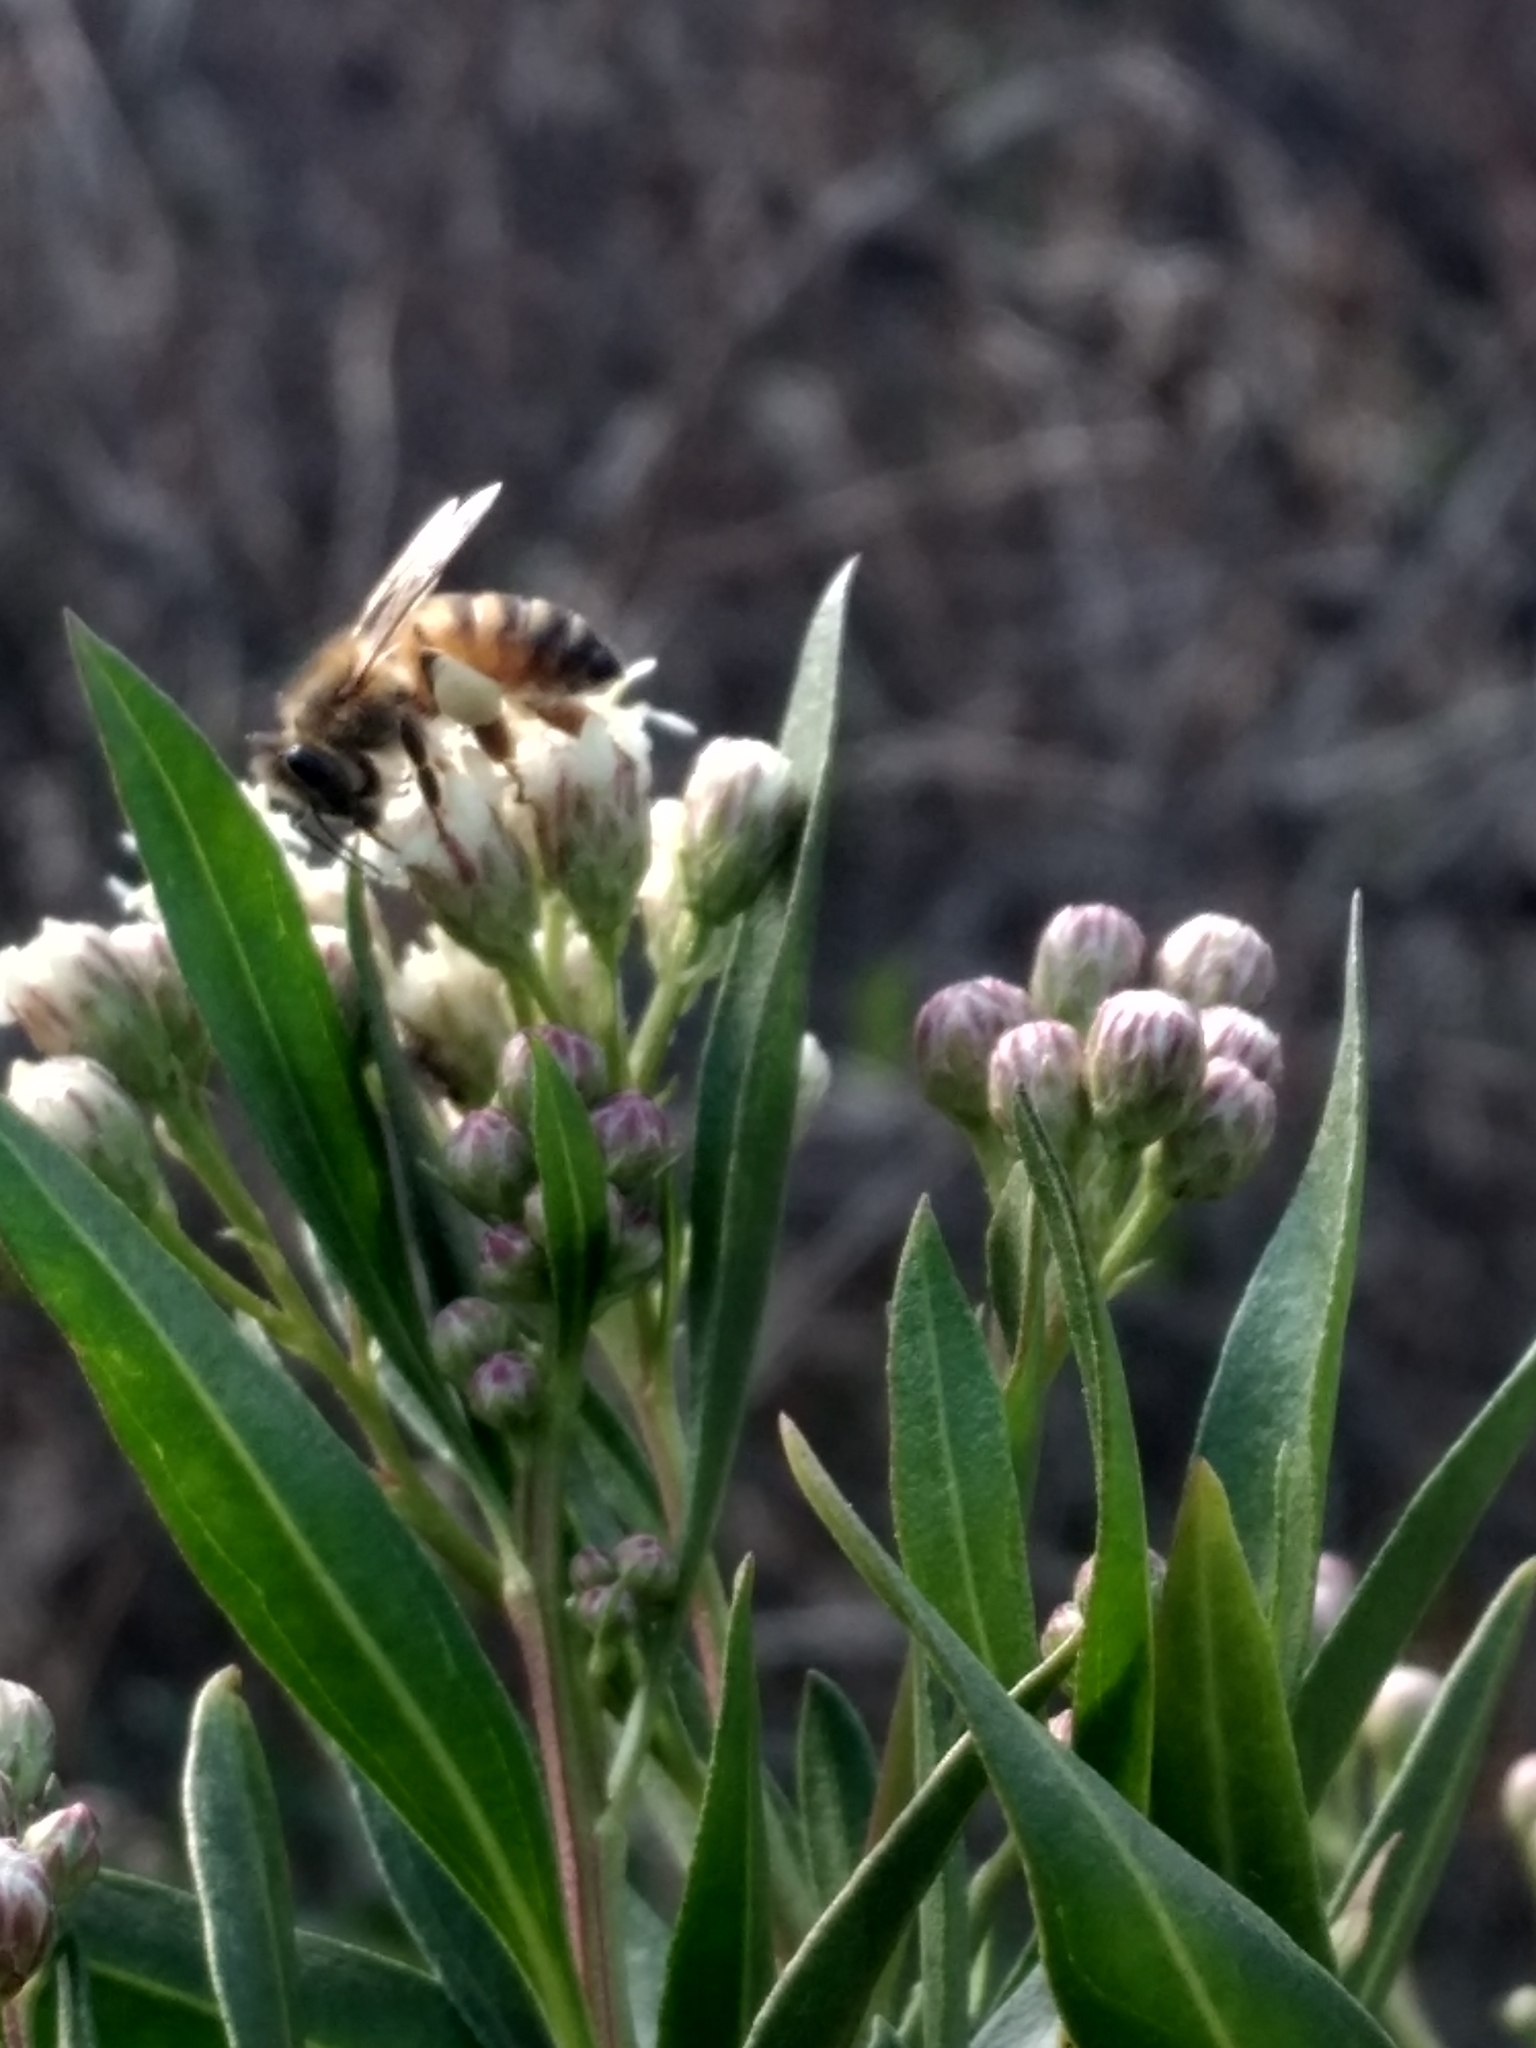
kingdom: Animalia
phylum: Arthropoda
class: Insecta
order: Hymenoptera
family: Apidae
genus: Apis
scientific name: Apis mellifera
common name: Honey bee
